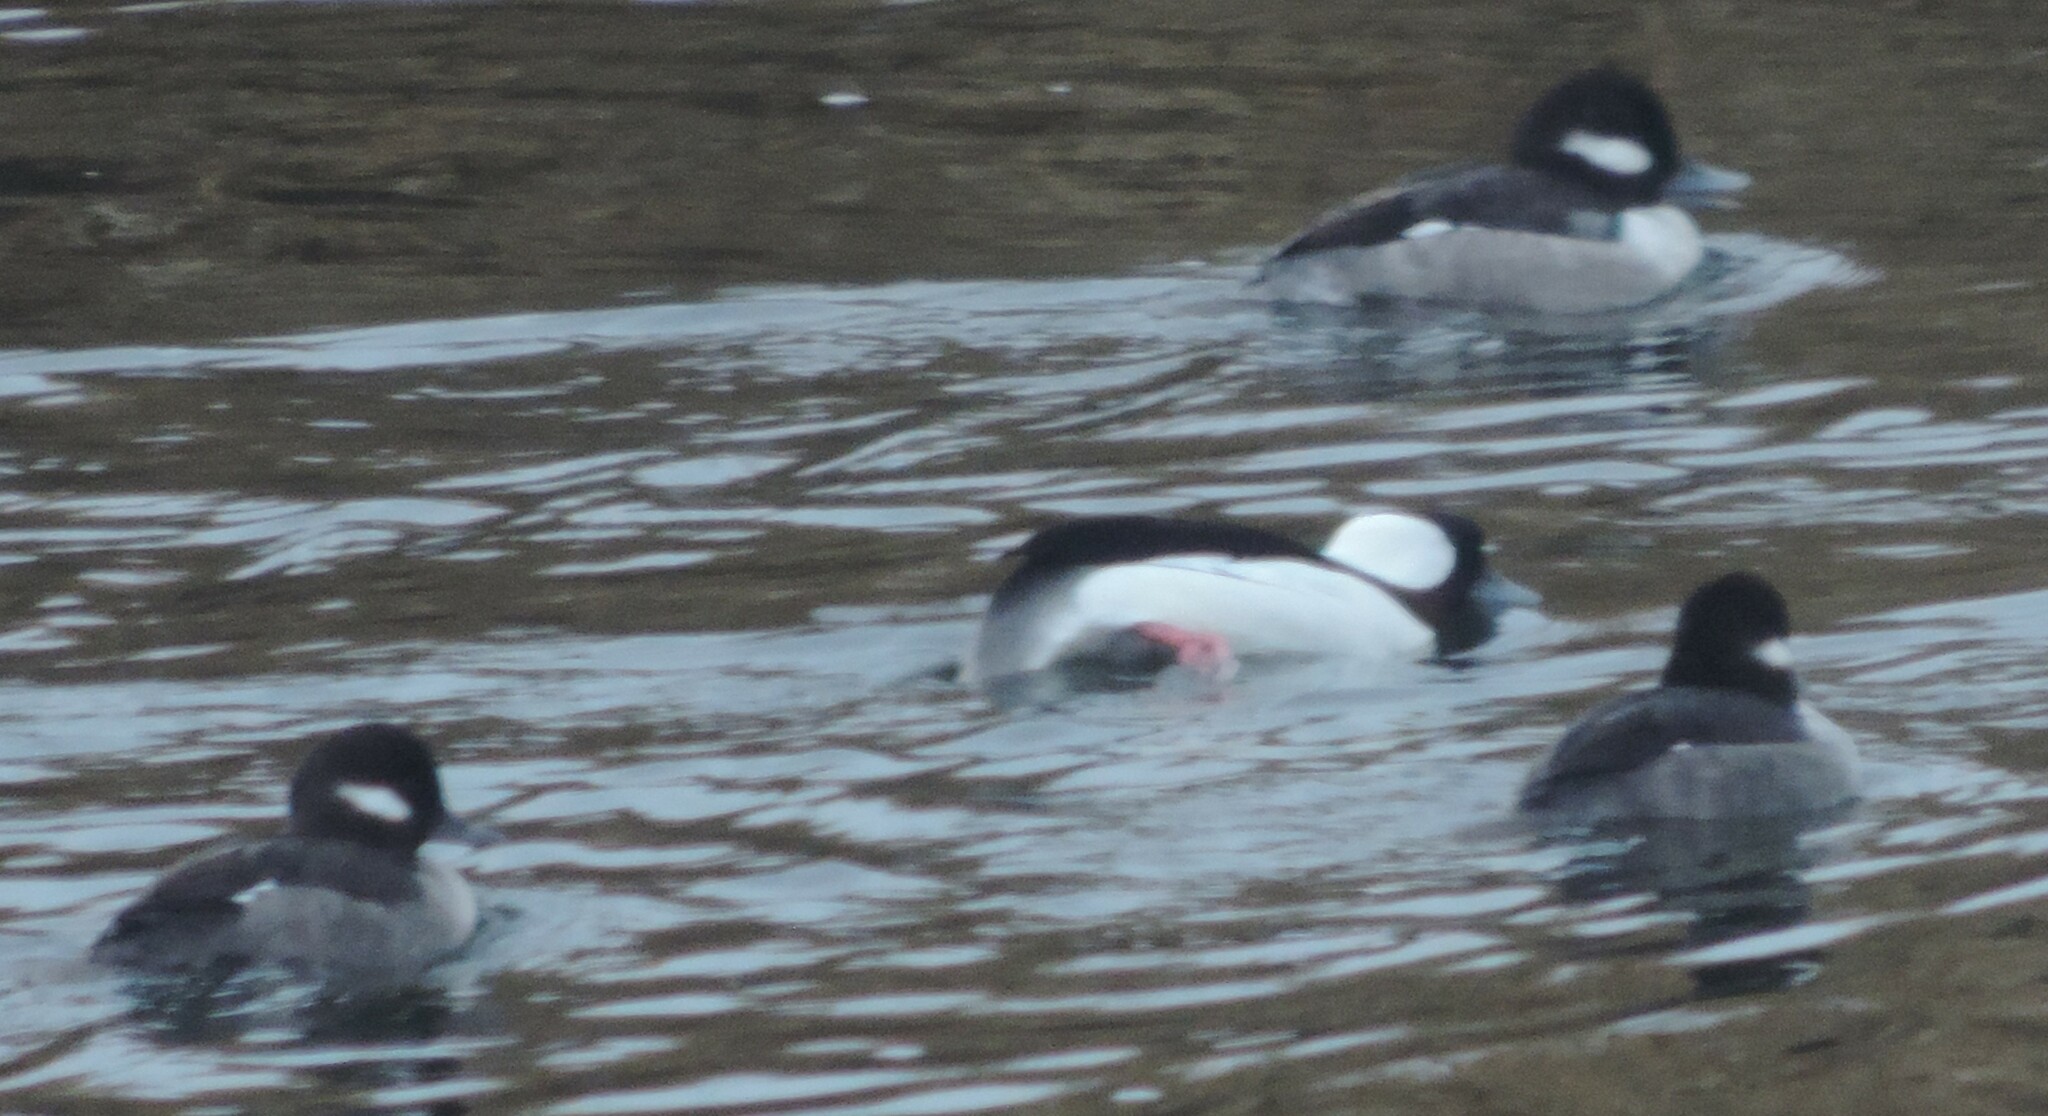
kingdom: Animalia
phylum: Chordata
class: Aves
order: Anseriformes
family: Anatidae
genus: Bucephala
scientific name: Bucephala albeola
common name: Bufflehead
